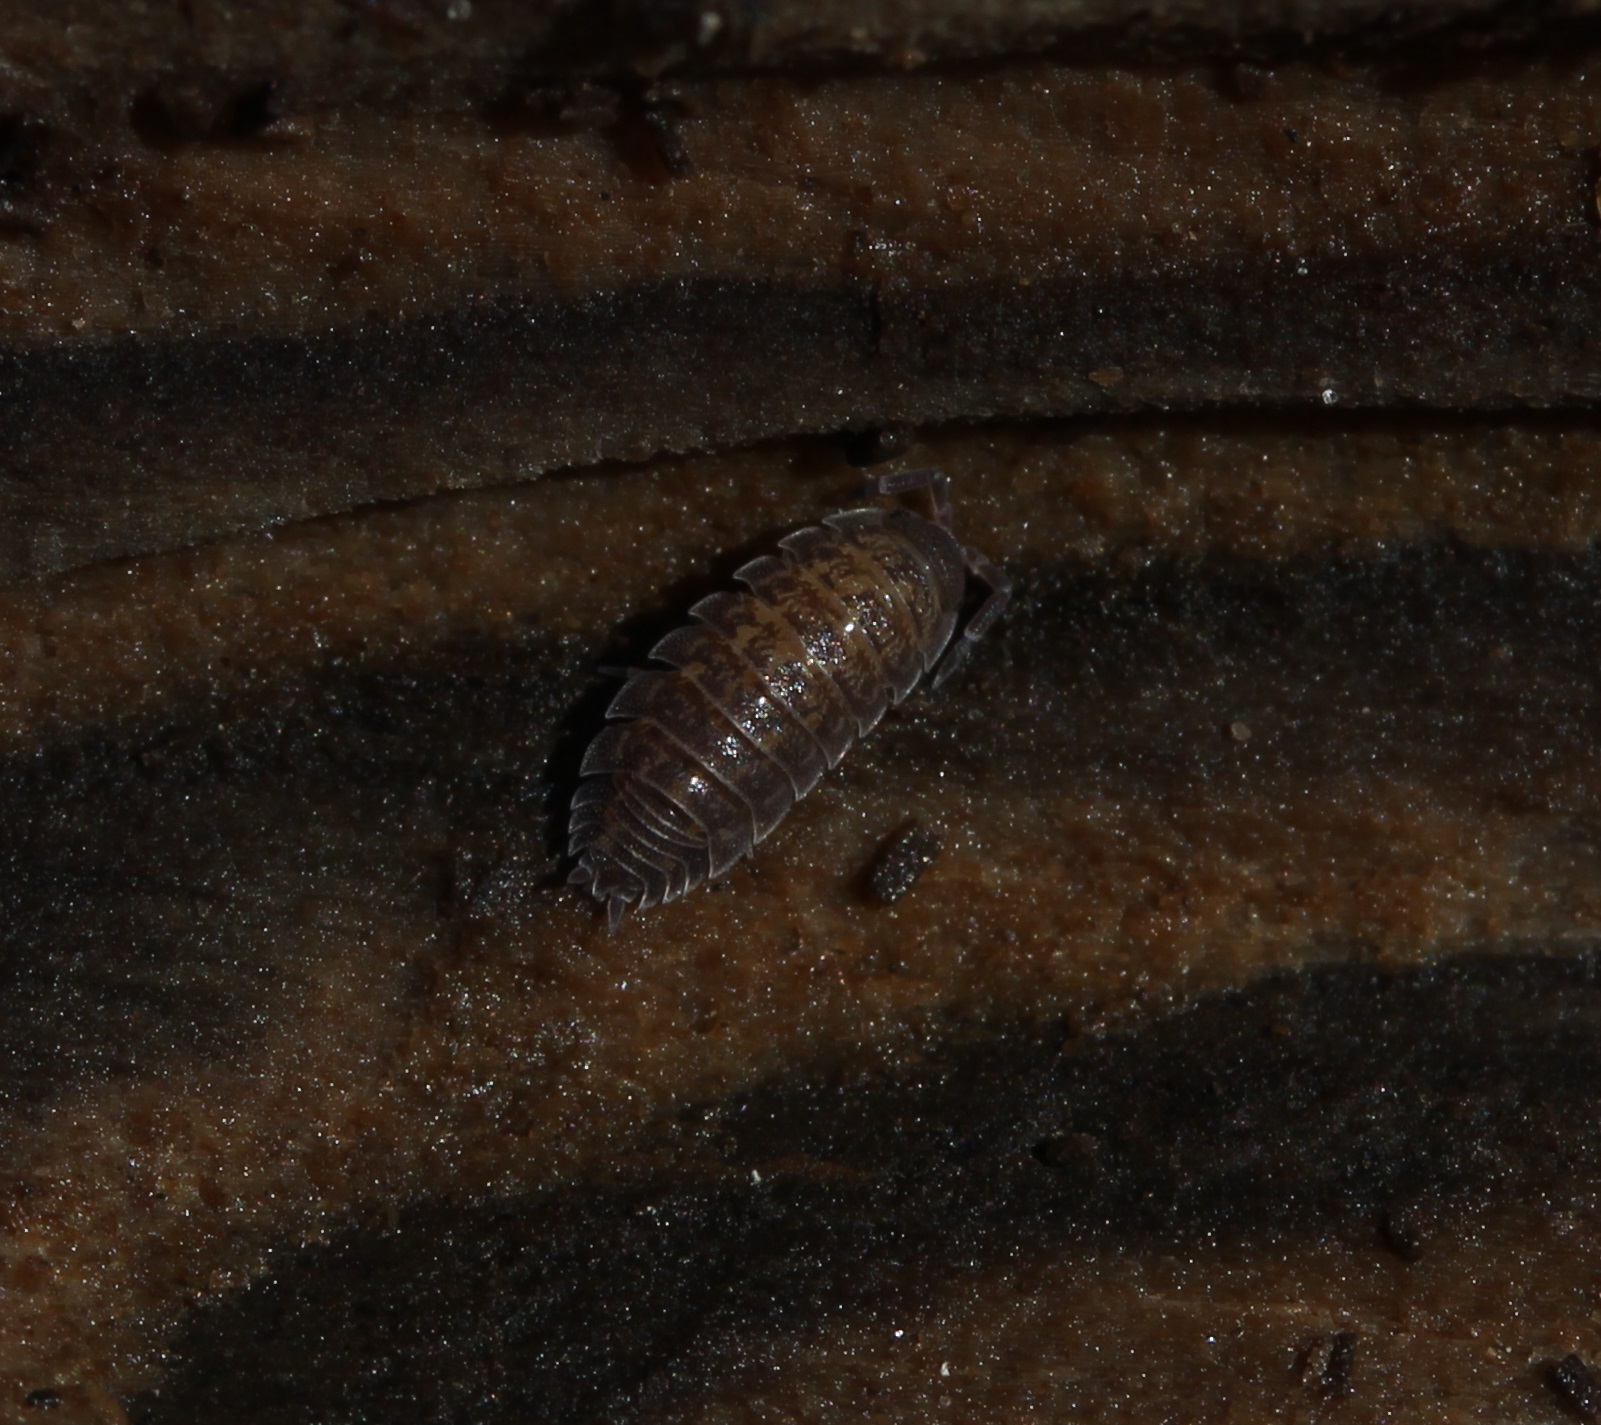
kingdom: Animalia
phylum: Arthropoda
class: Malacostraca
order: Isopoda
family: Porcellionidae
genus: Porcellio
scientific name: Porcellio scaber
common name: Common rough woodlouse
